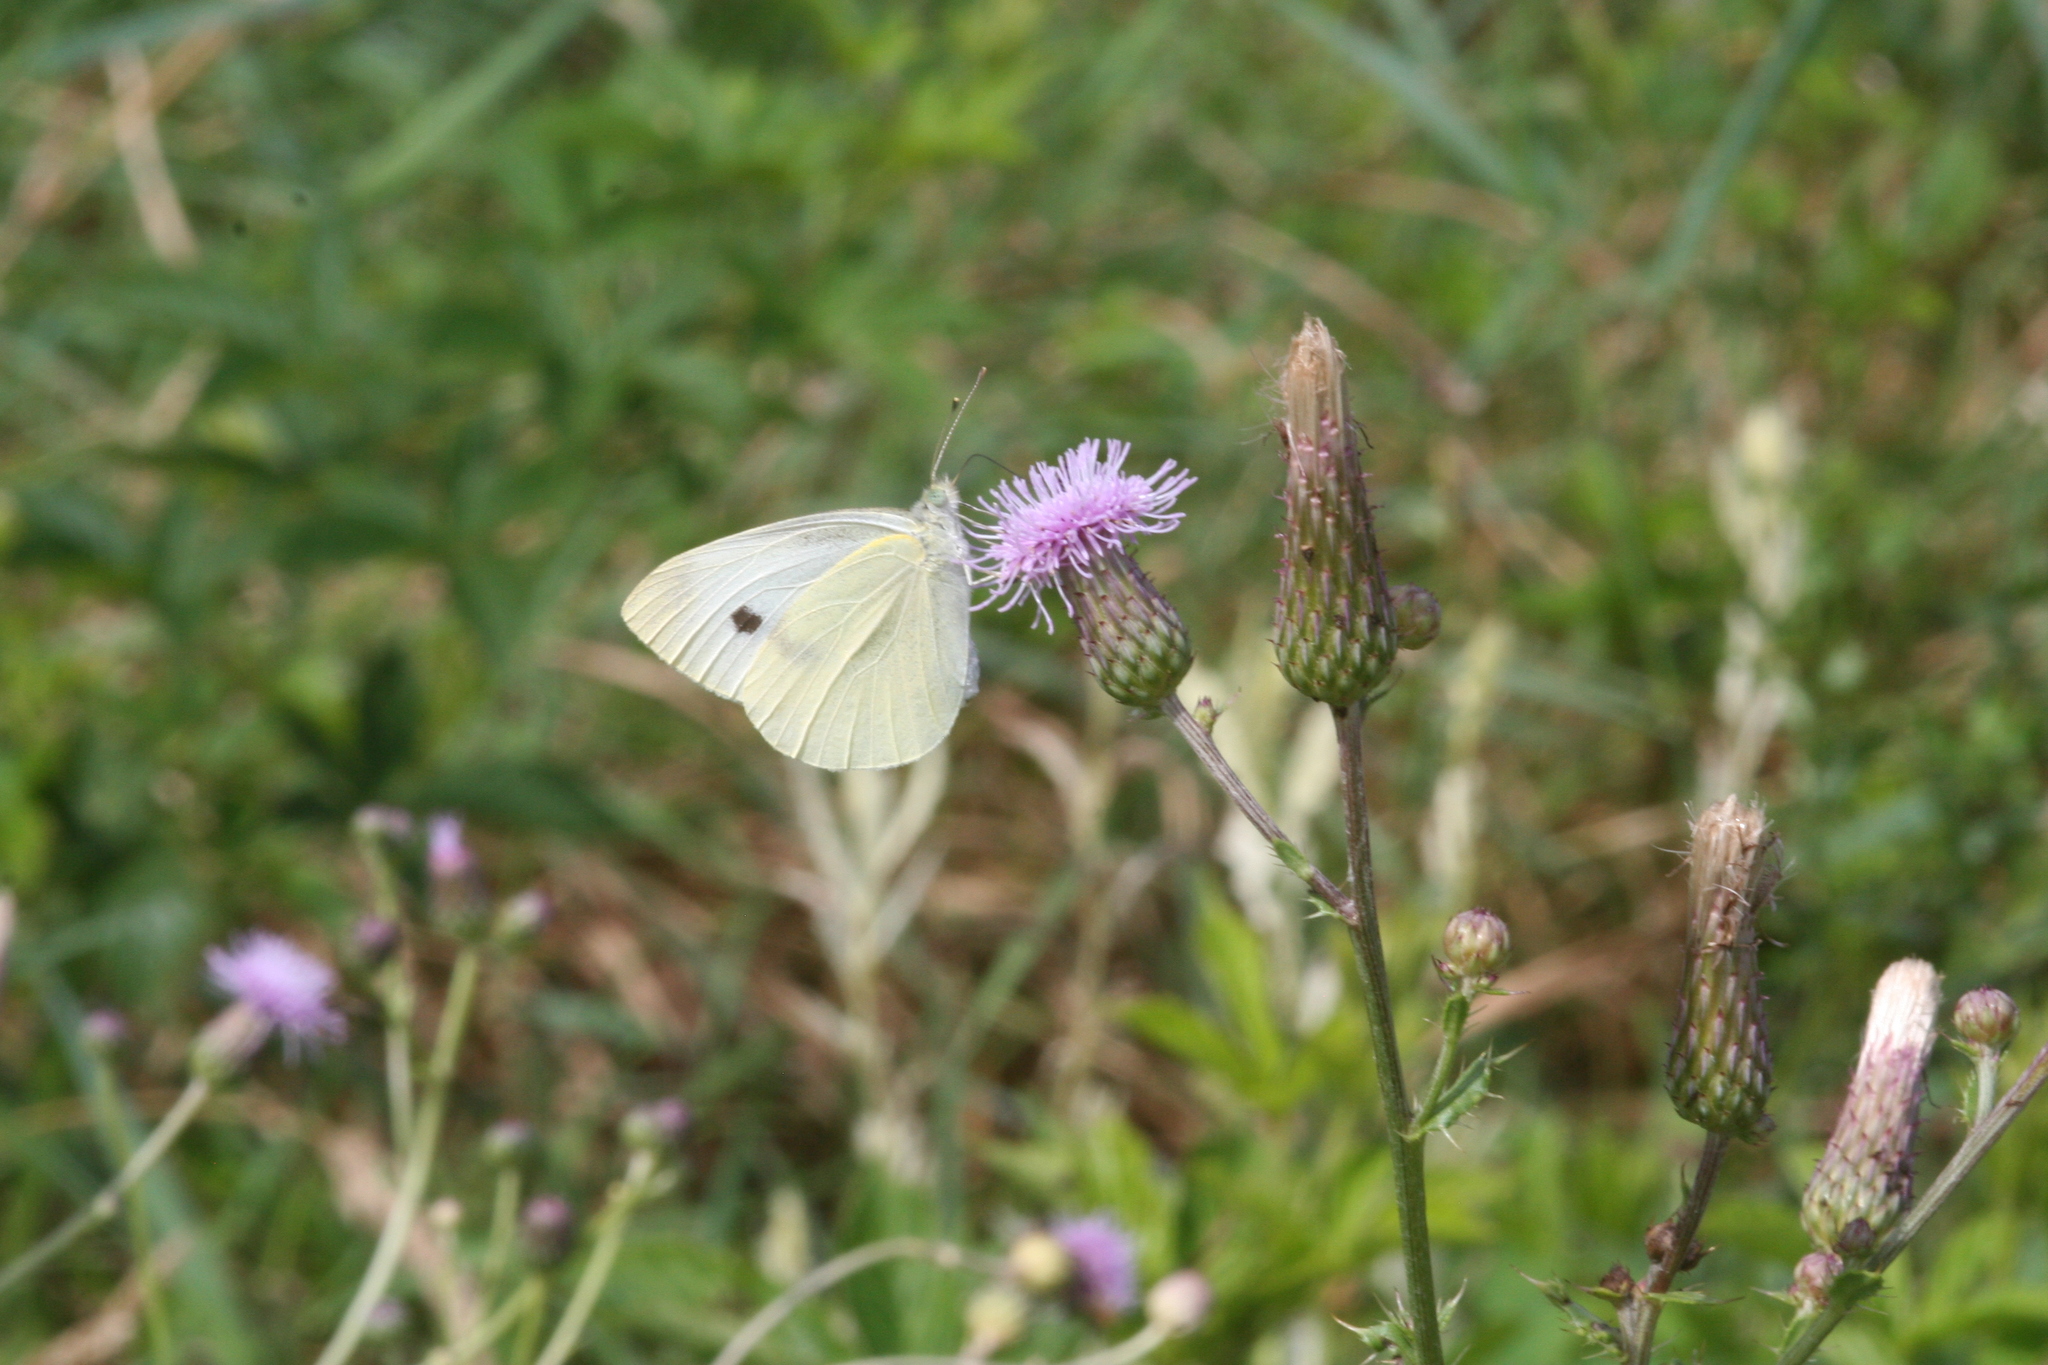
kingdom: Animalia
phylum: Arthropoda
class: Insecta
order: Lepidoptera
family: Pieridae
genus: Pieris
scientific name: Pieris rapae
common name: Small white
